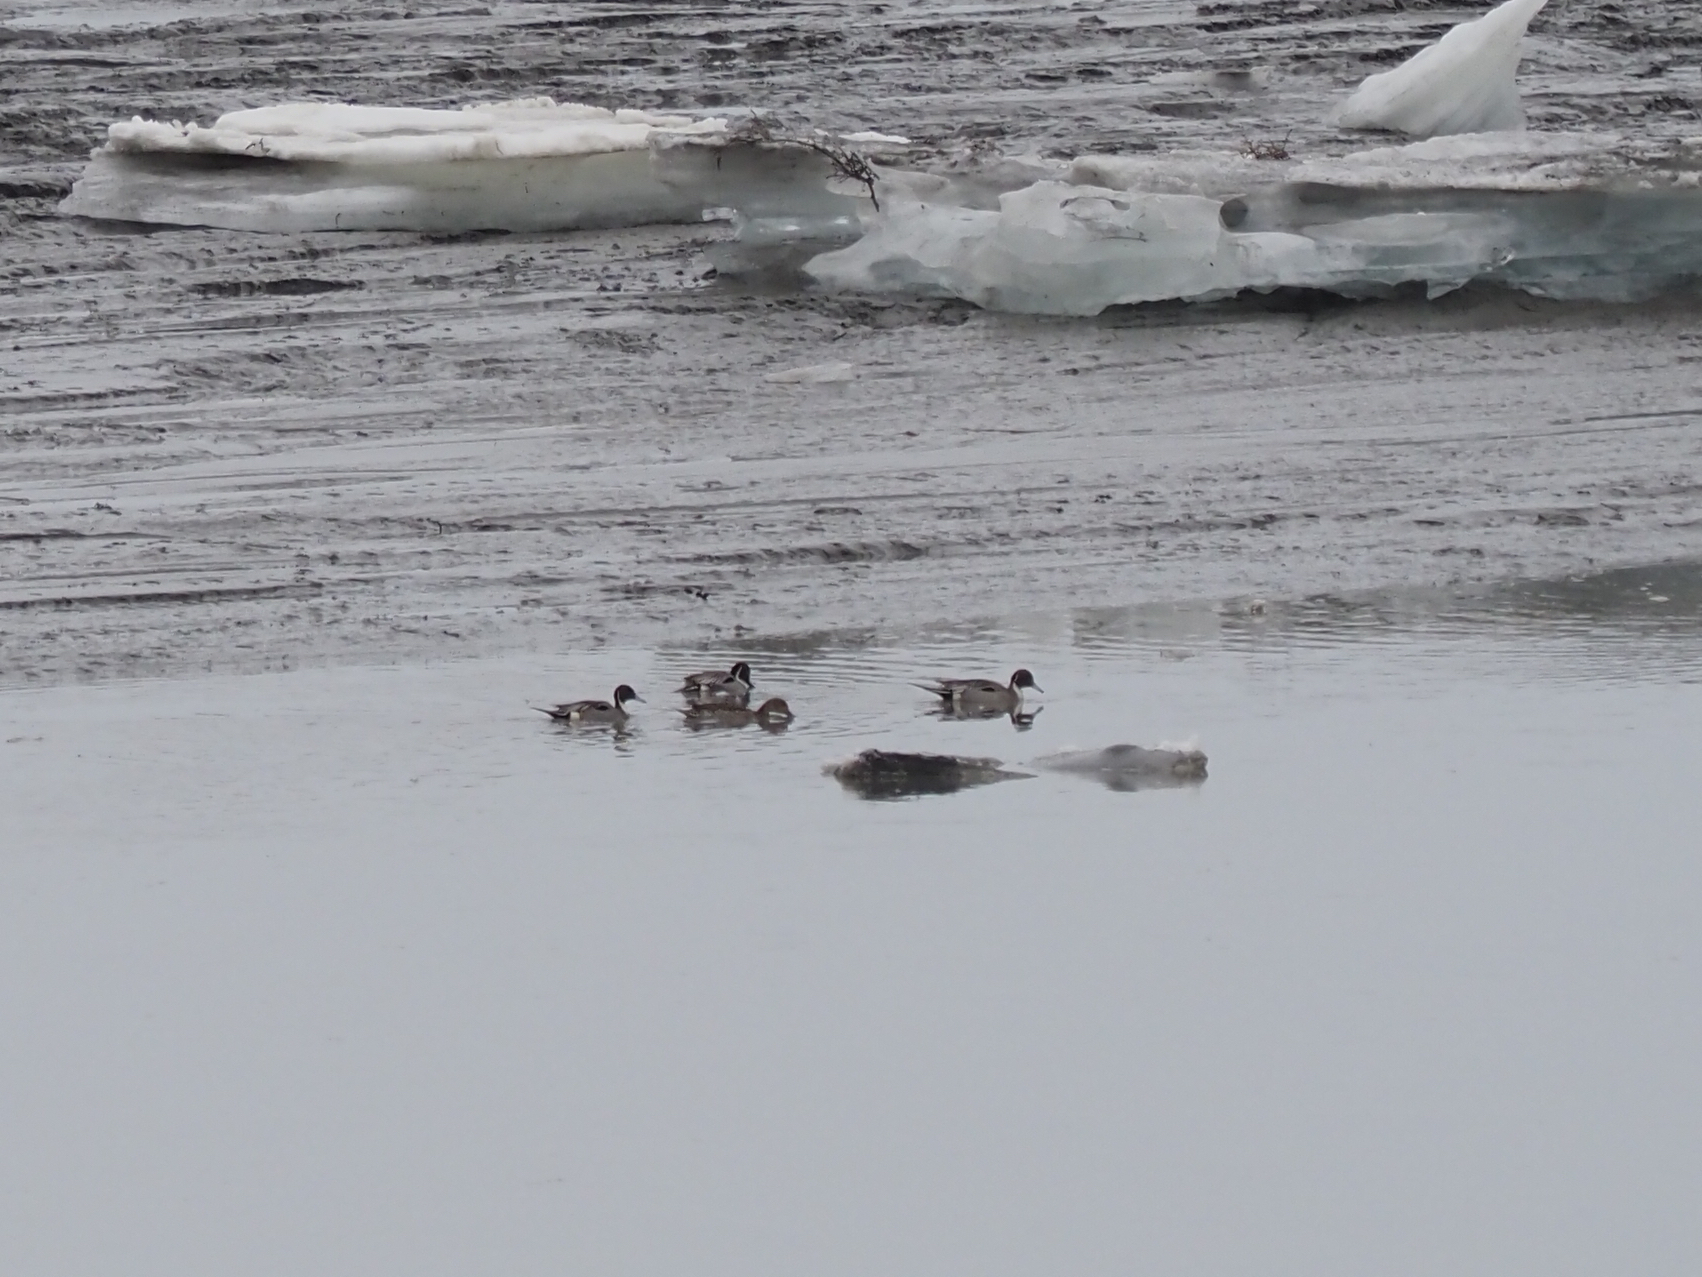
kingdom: Animalia
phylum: Chordata
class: Aves
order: Anseriformes
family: Anatidae
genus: Anas
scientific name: Anas acuta
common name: Northern pintail
